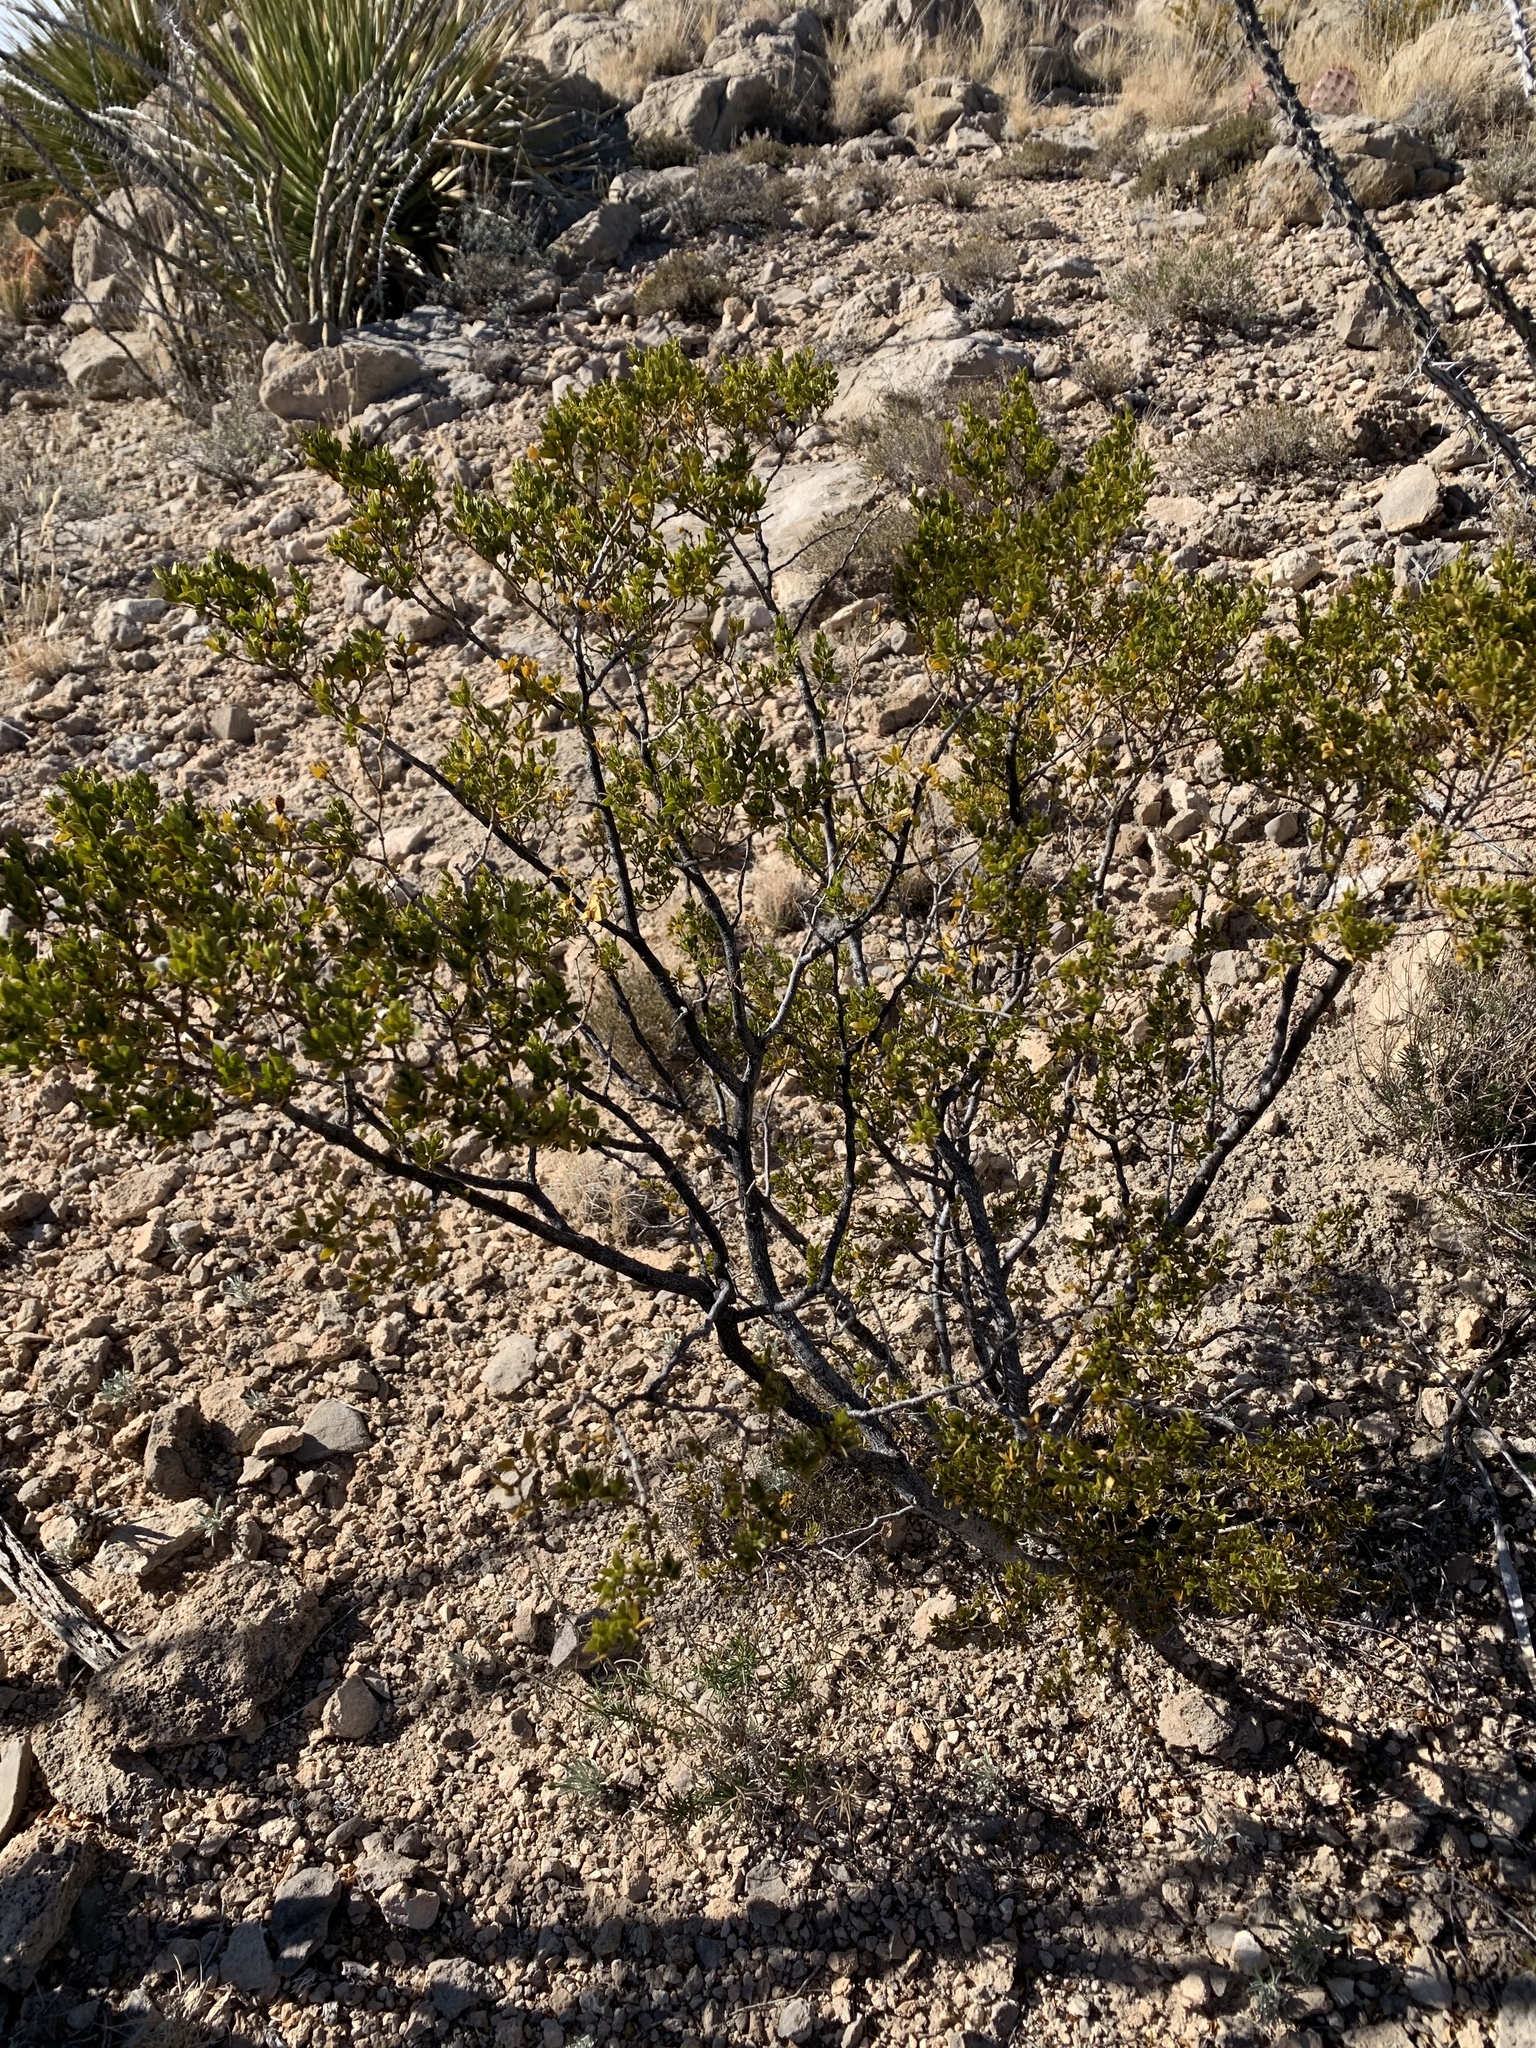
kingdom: Plantae
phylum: Tracheophyta
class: Magnoliopsida
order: Zygophyllales
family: Zygophyllaceae
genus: Larrea
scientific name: Larrea tridentata
